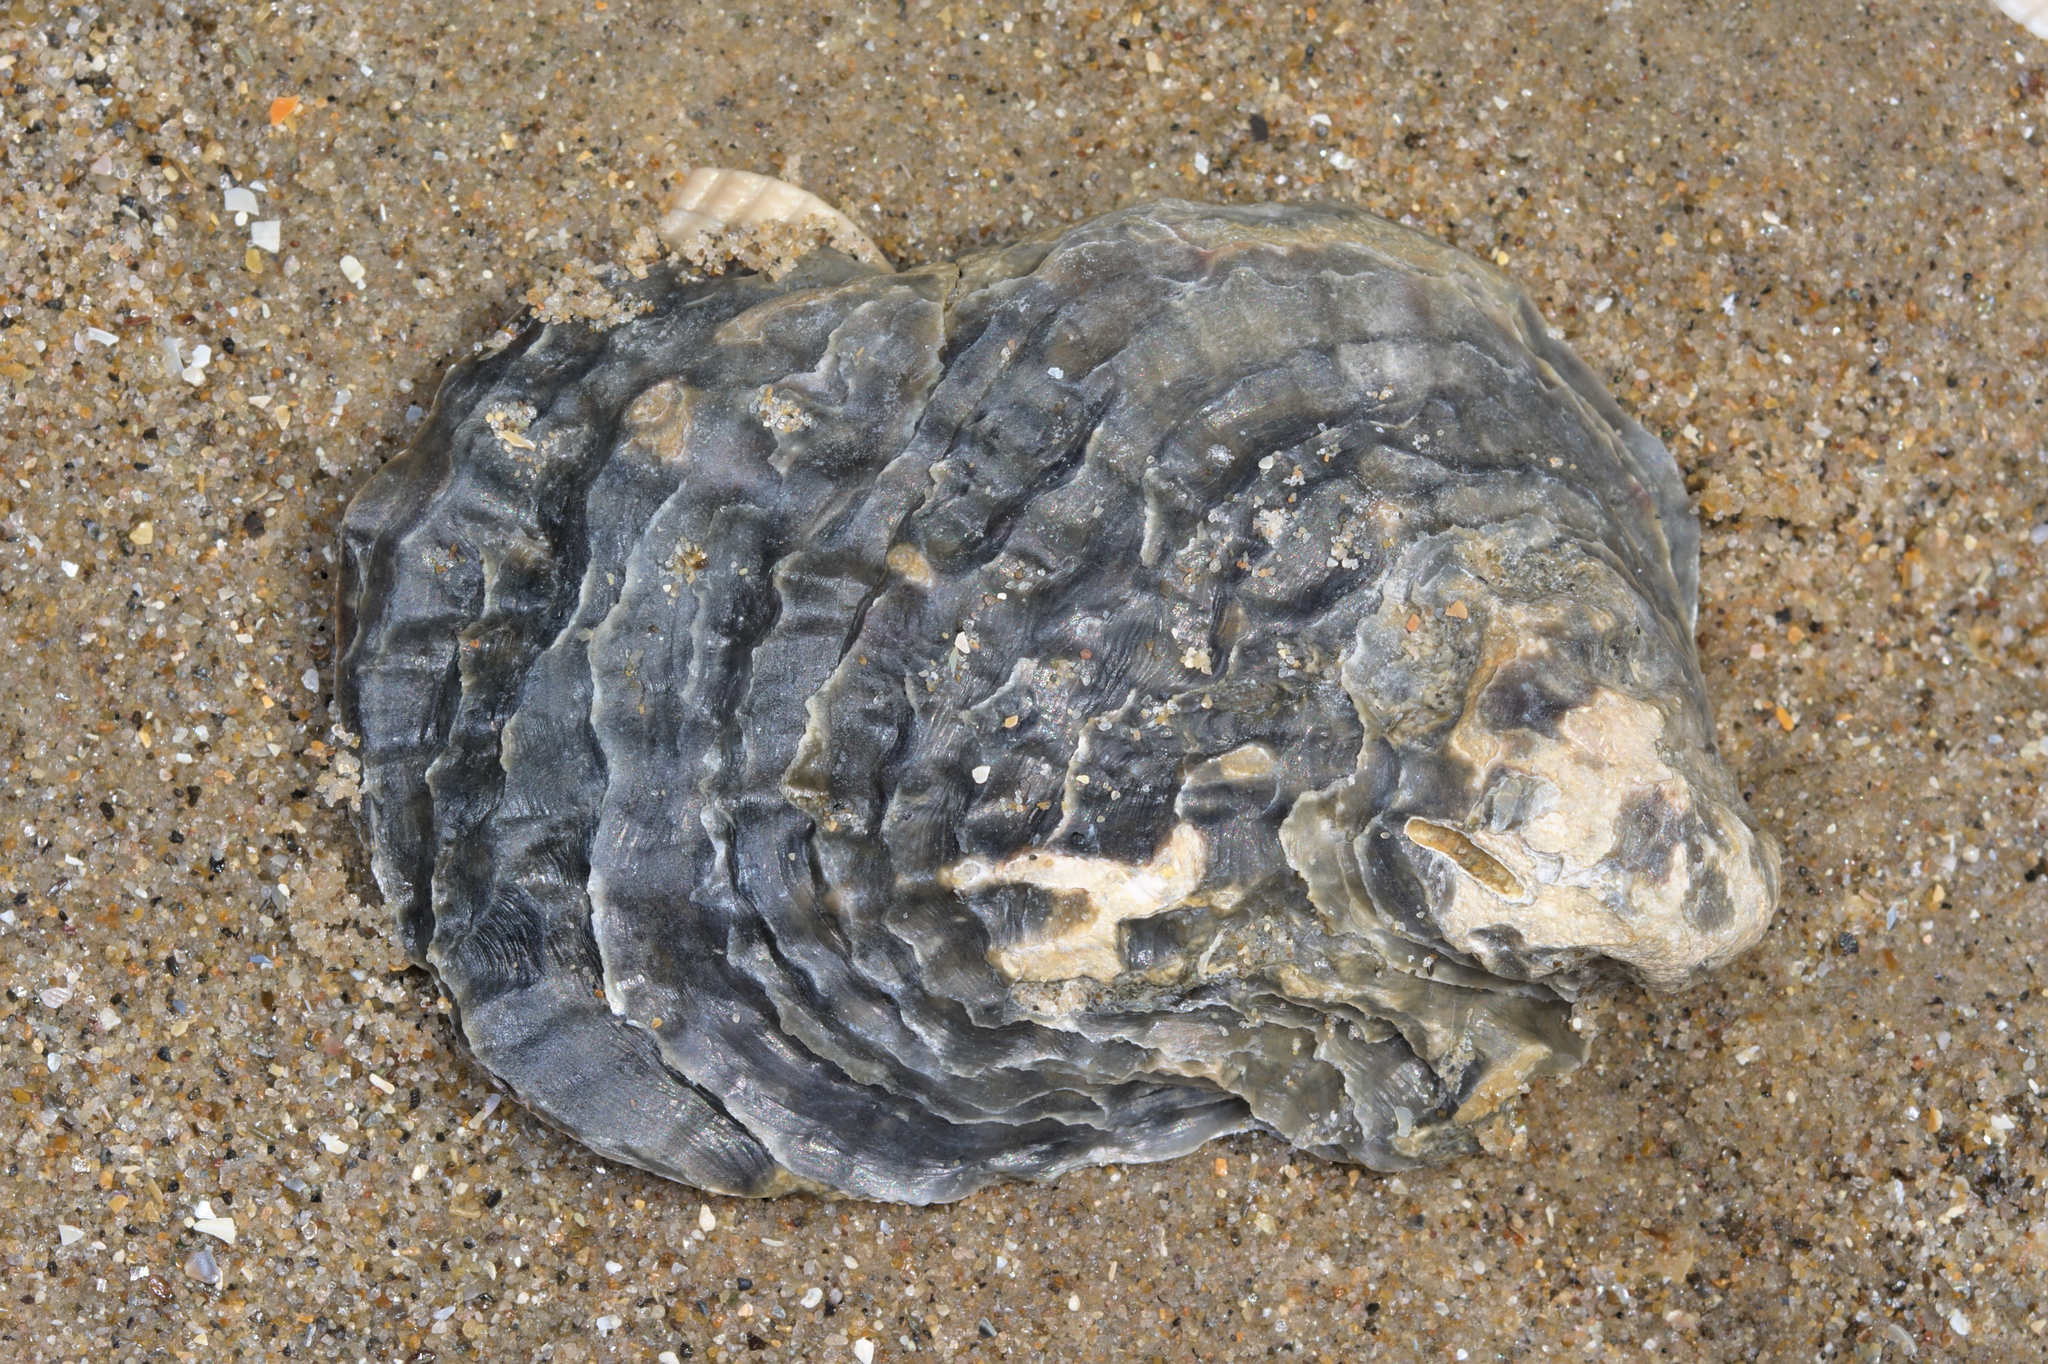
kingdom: Animalia
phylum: Mollusca
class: Bivalvia
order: Ostreida
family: Ostreidae
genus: Ostrea
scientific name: Ostrea edulis
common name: Flat oyster
